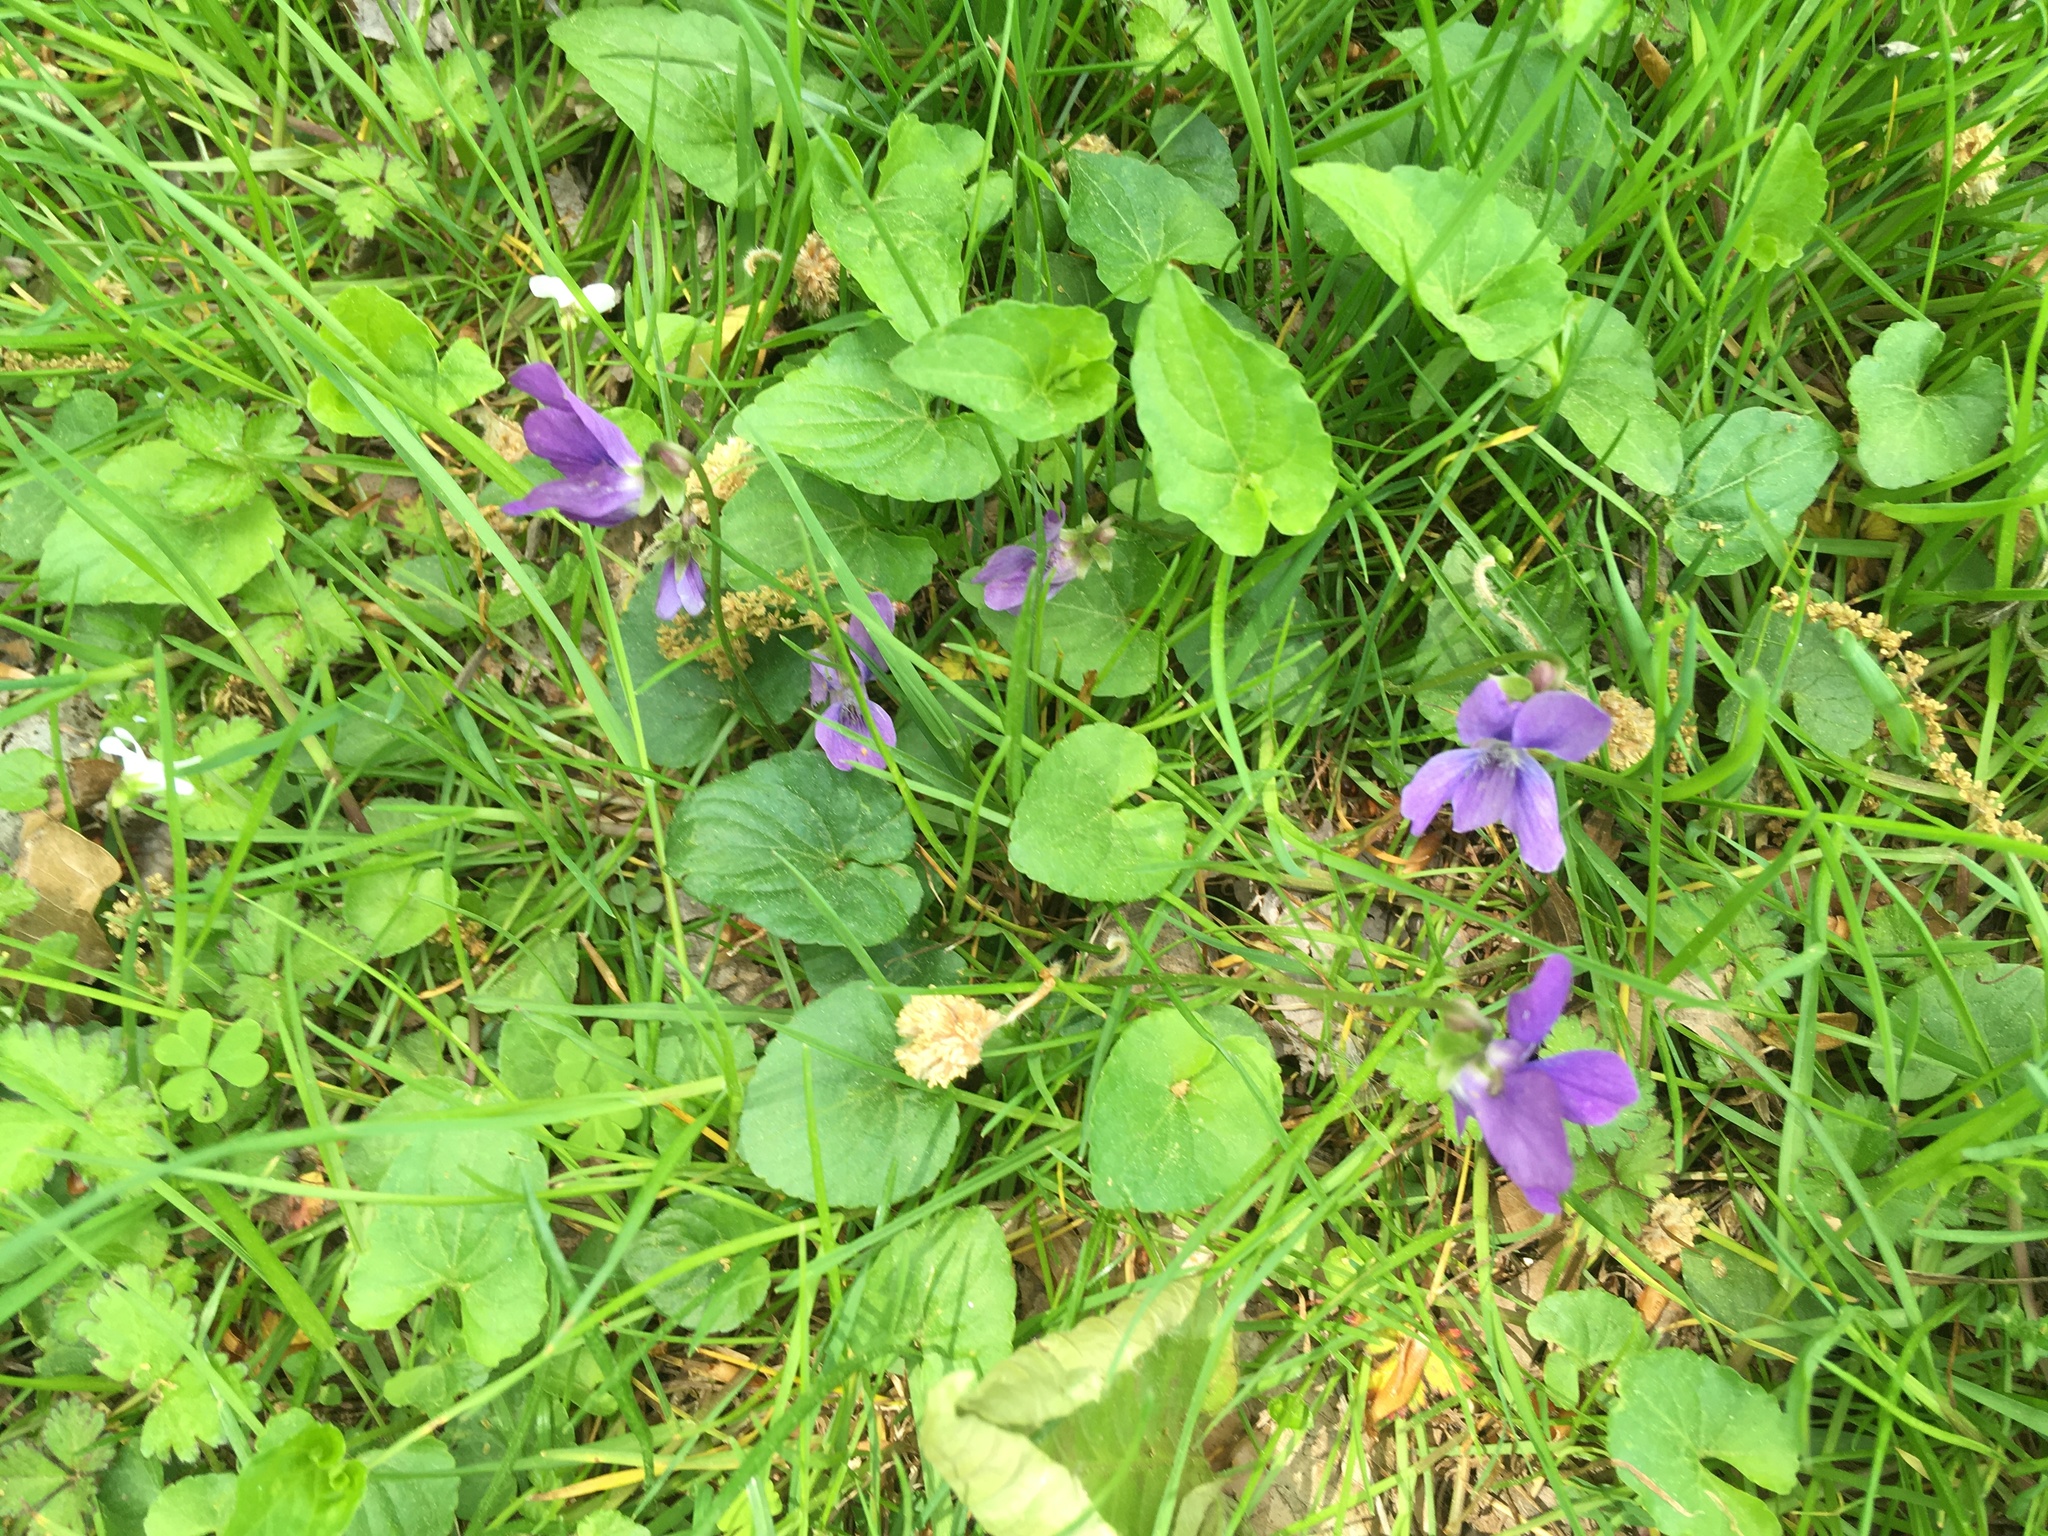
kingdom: Plantae
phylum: Tracheophyta
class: Magnoliopsida
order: Malpighiales
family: Violaceae
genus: Viola
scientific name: Viola sororia
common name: Dooryard violet
